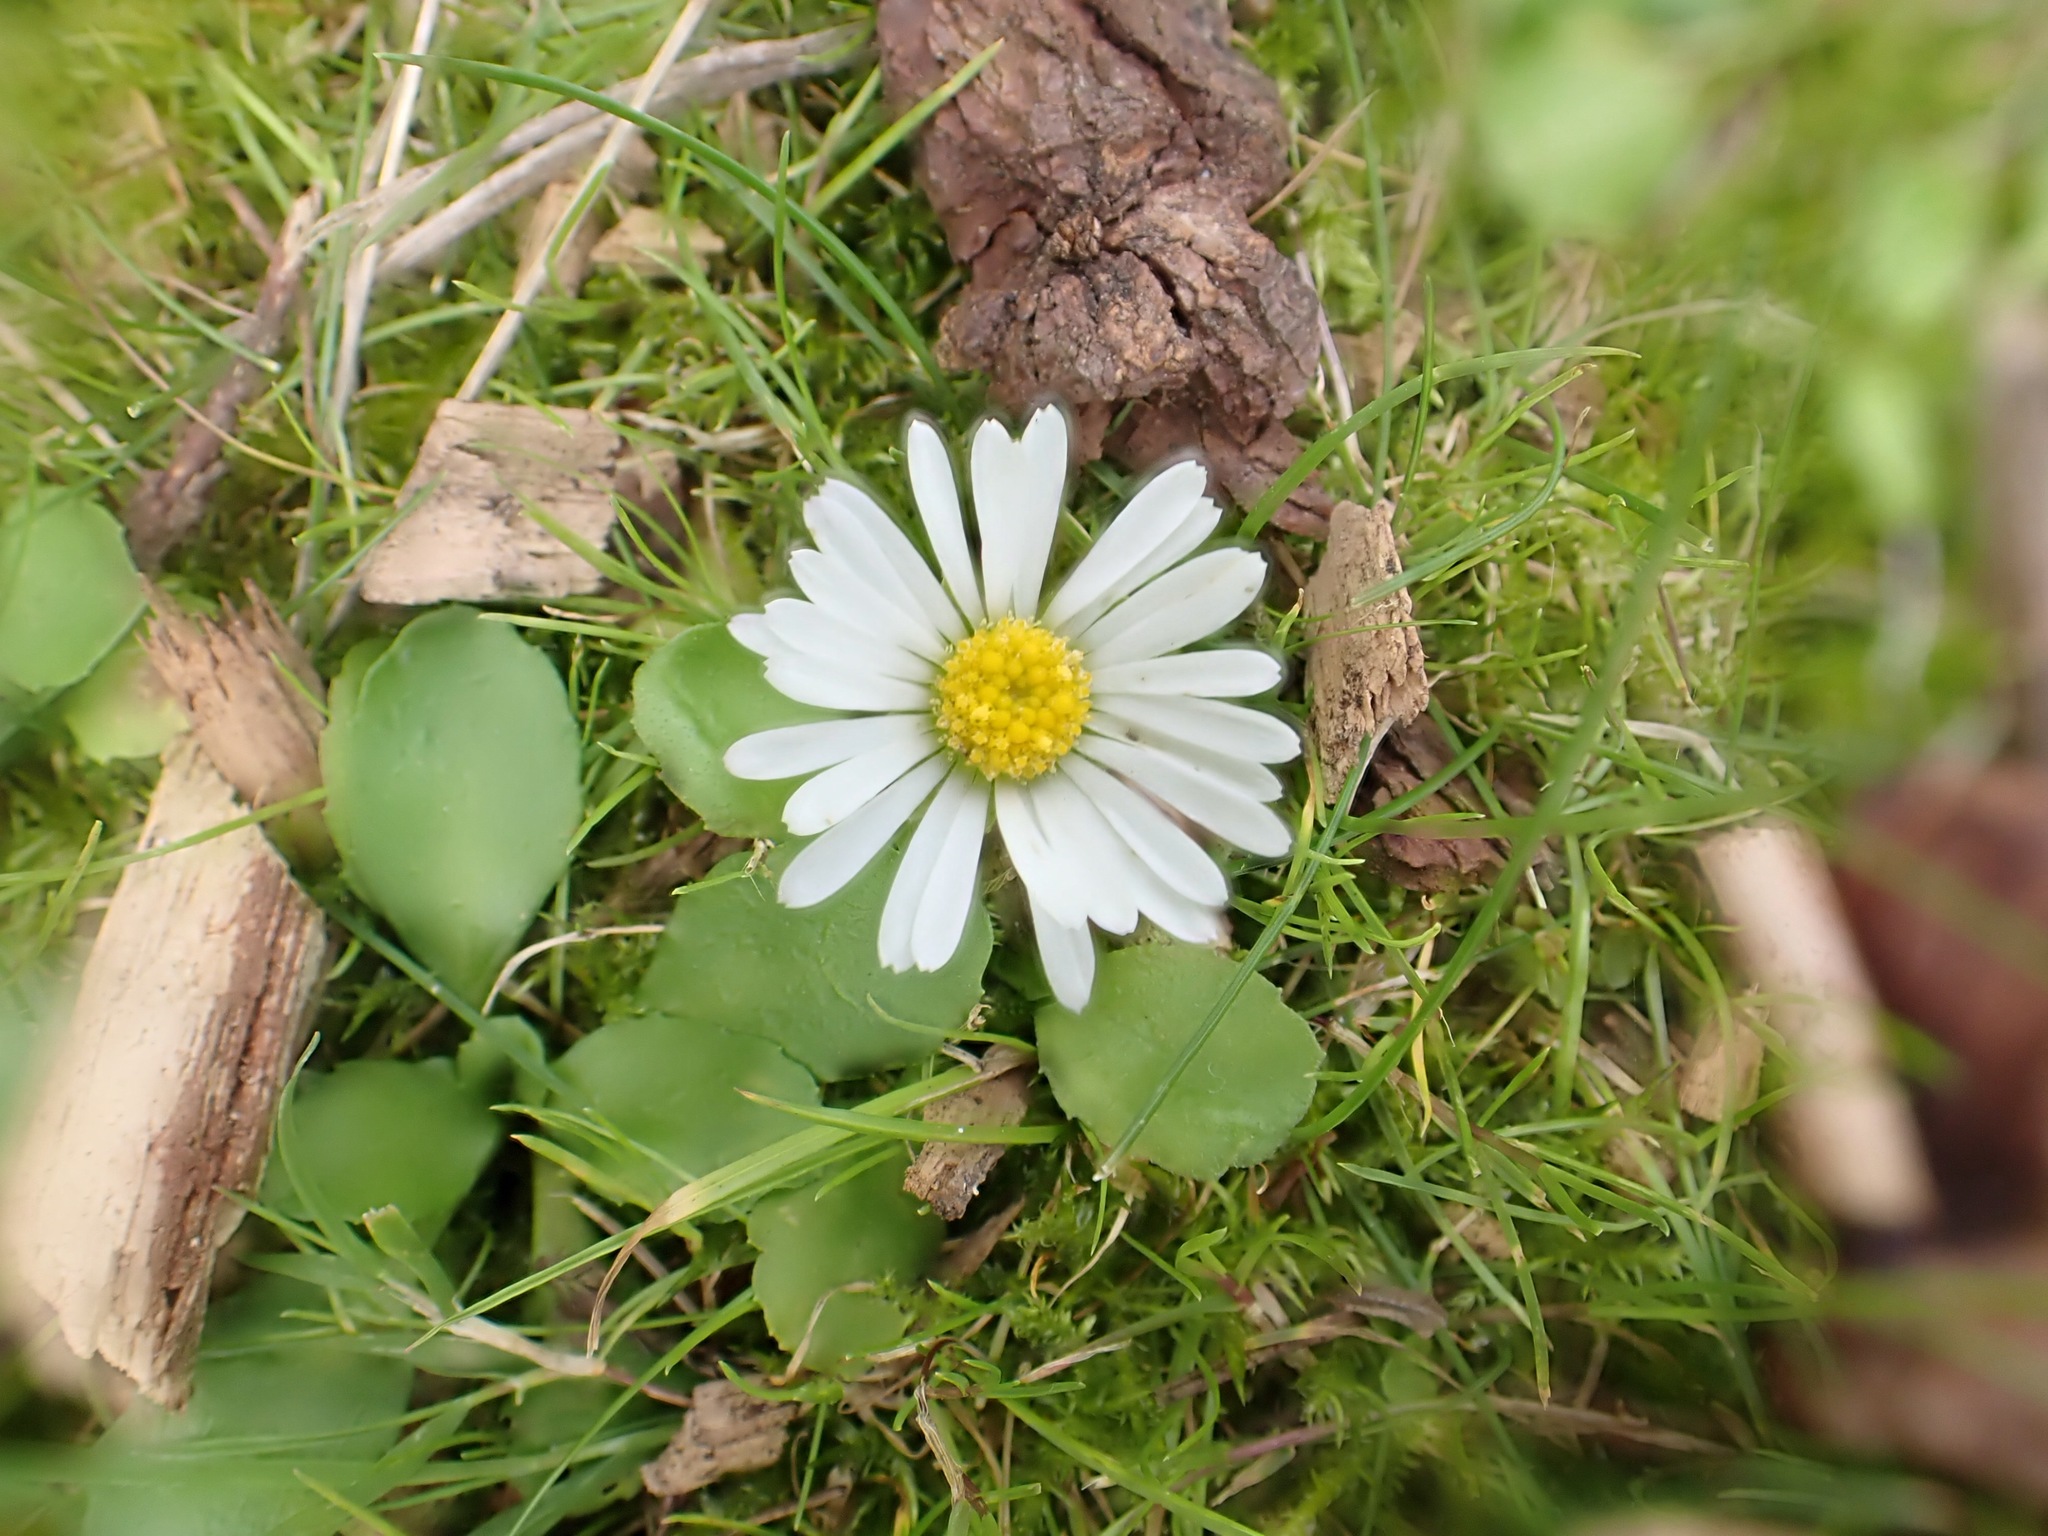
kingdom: Plantae
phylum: Tracheophyta
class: Magnoliopsida
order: Asterales
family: Asteraceae
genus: Bellis
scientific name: Bellis perennis
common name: Lawndaisy
